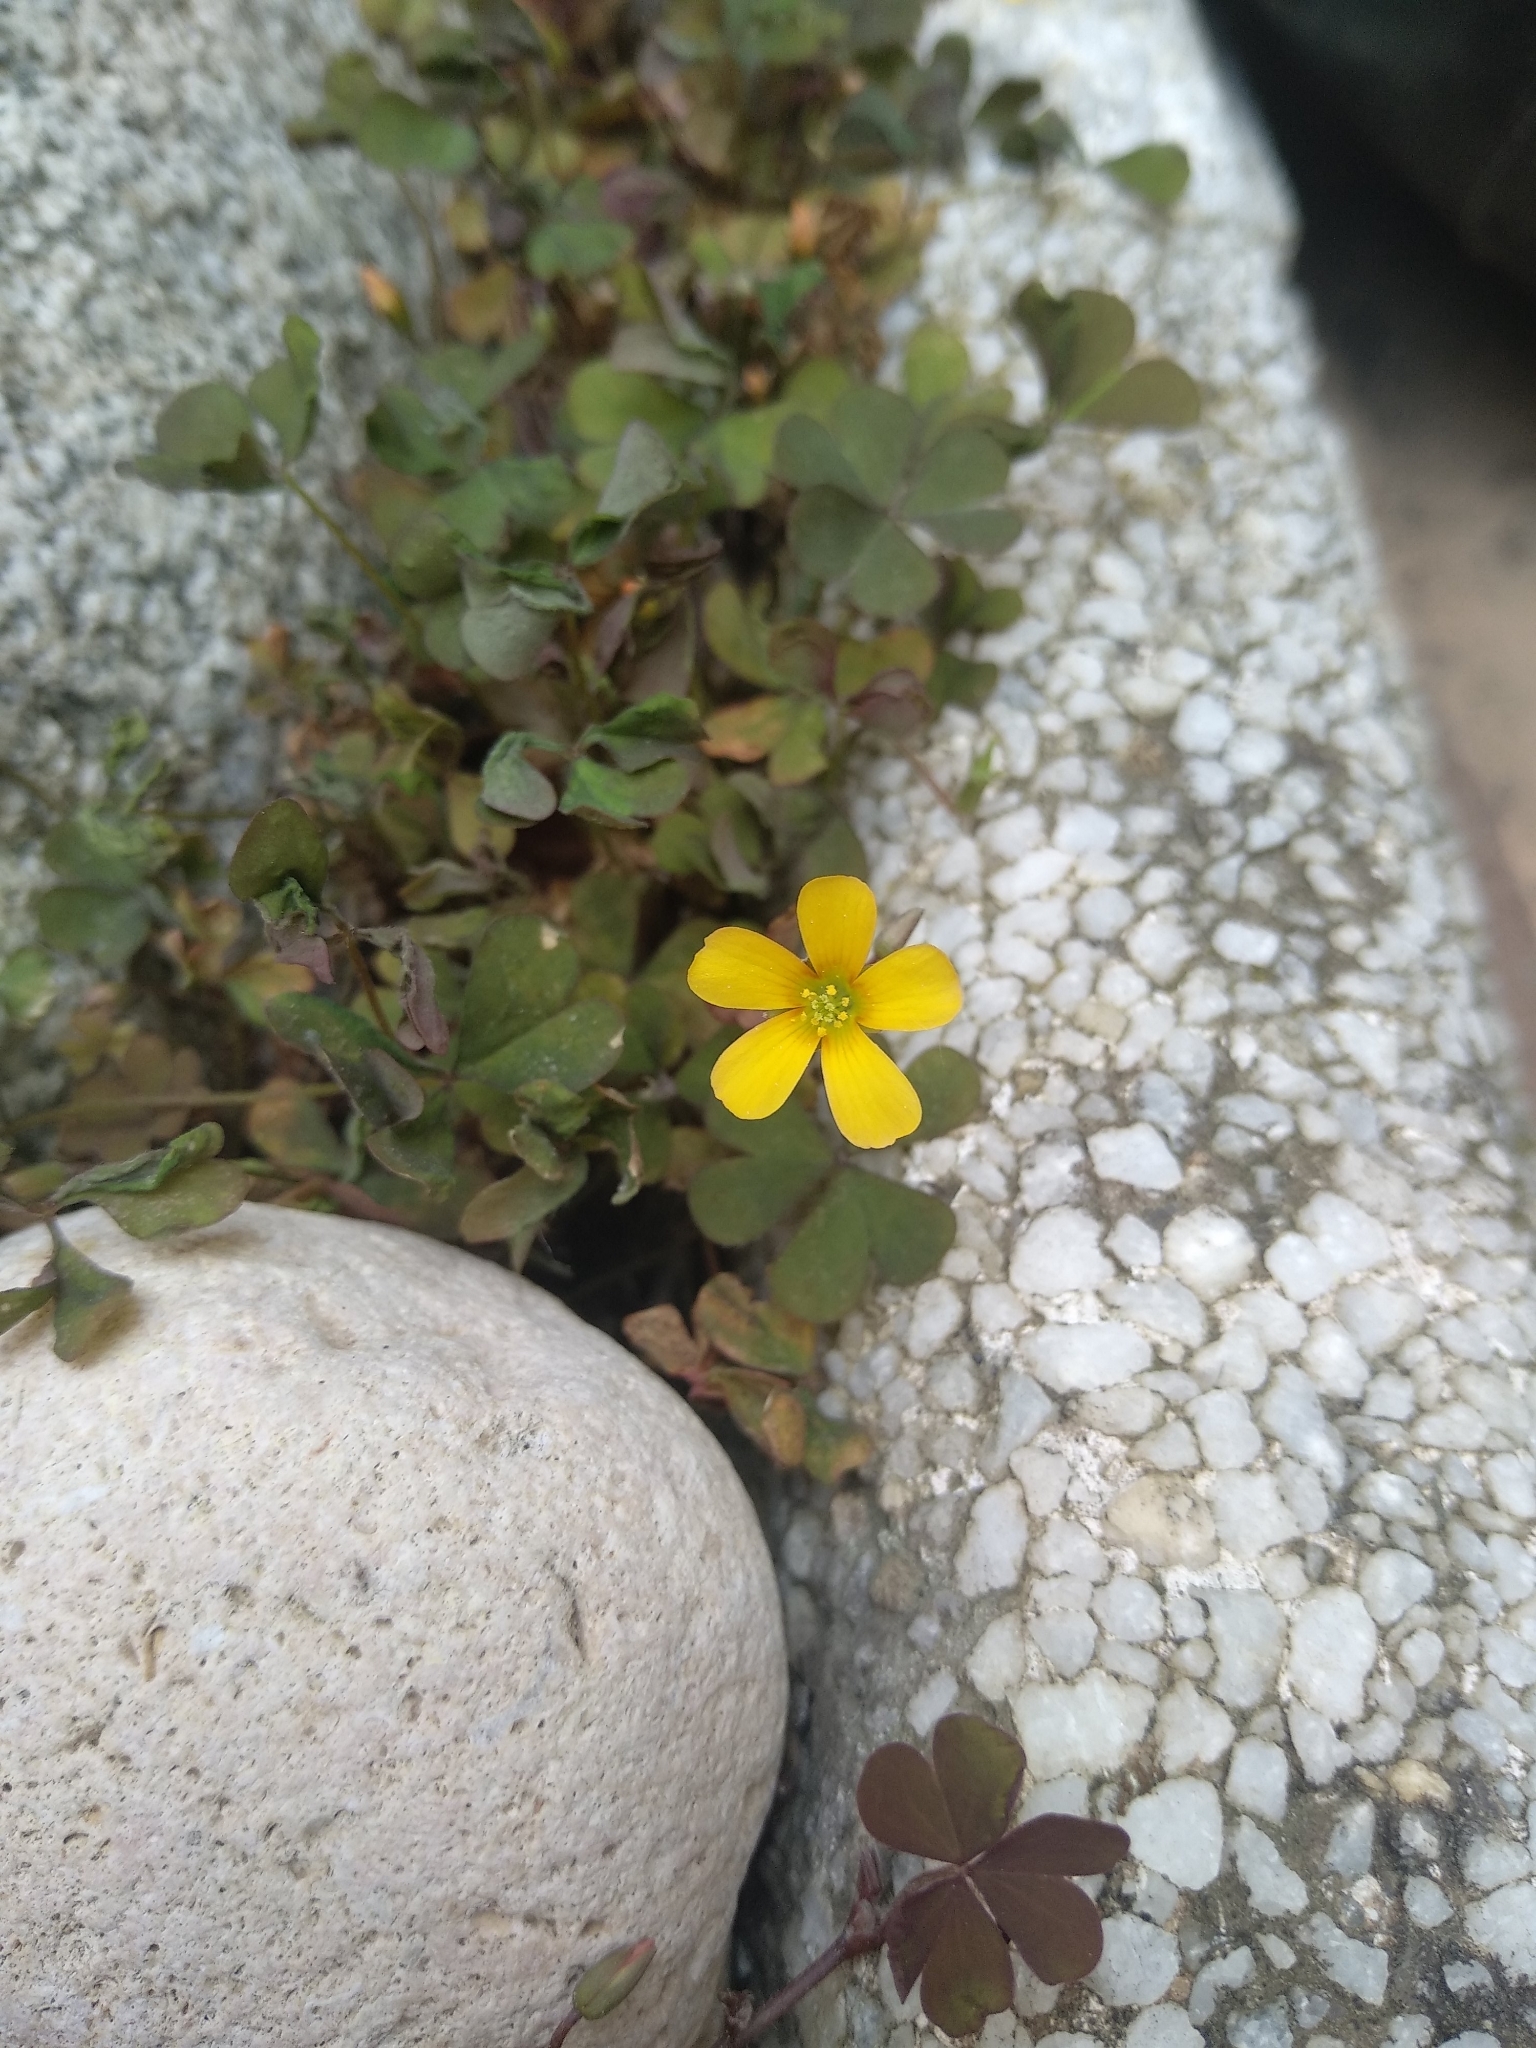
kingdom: Plantae
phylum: Tracheophyta
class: Magnoliopsida
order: Oxalidales
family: Oxalidaceae
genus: Oxalis
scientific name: Oxalis corniculata
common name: Procumbent yellow-sorrel
